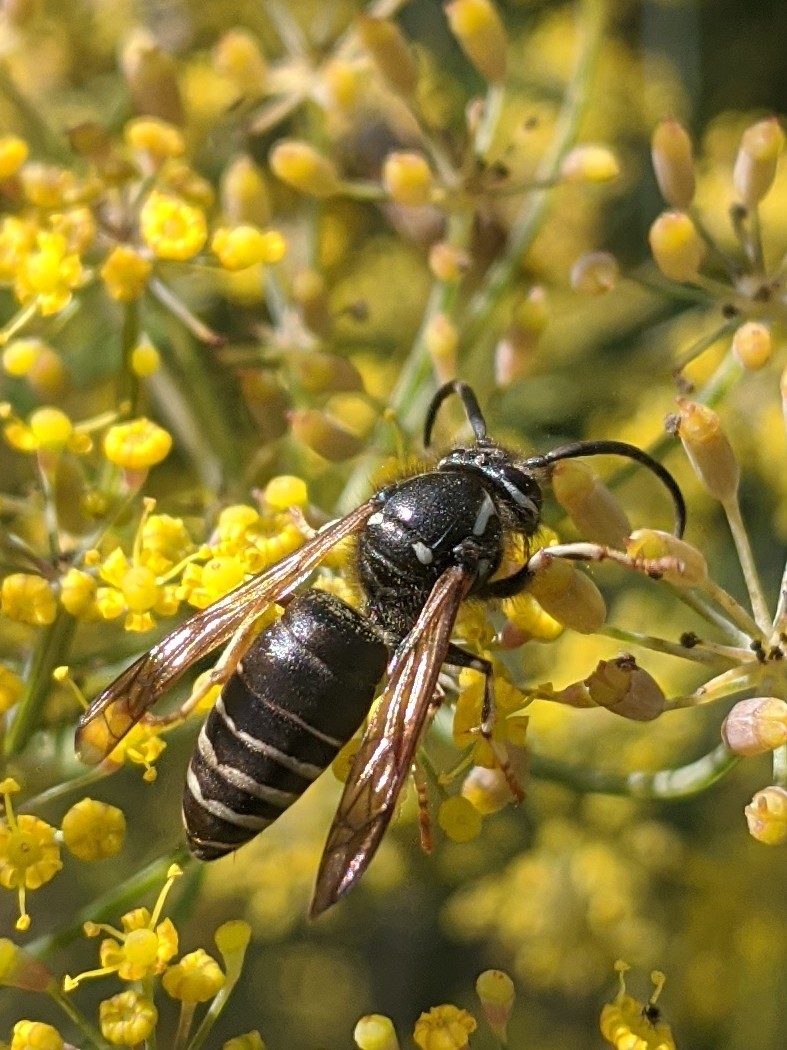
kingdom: Animalia
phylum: Arthropoda
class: Insecta
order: Hymenoptera
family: Vespidae
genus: Dolichovespula
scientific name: Dolichovespula adulterina
